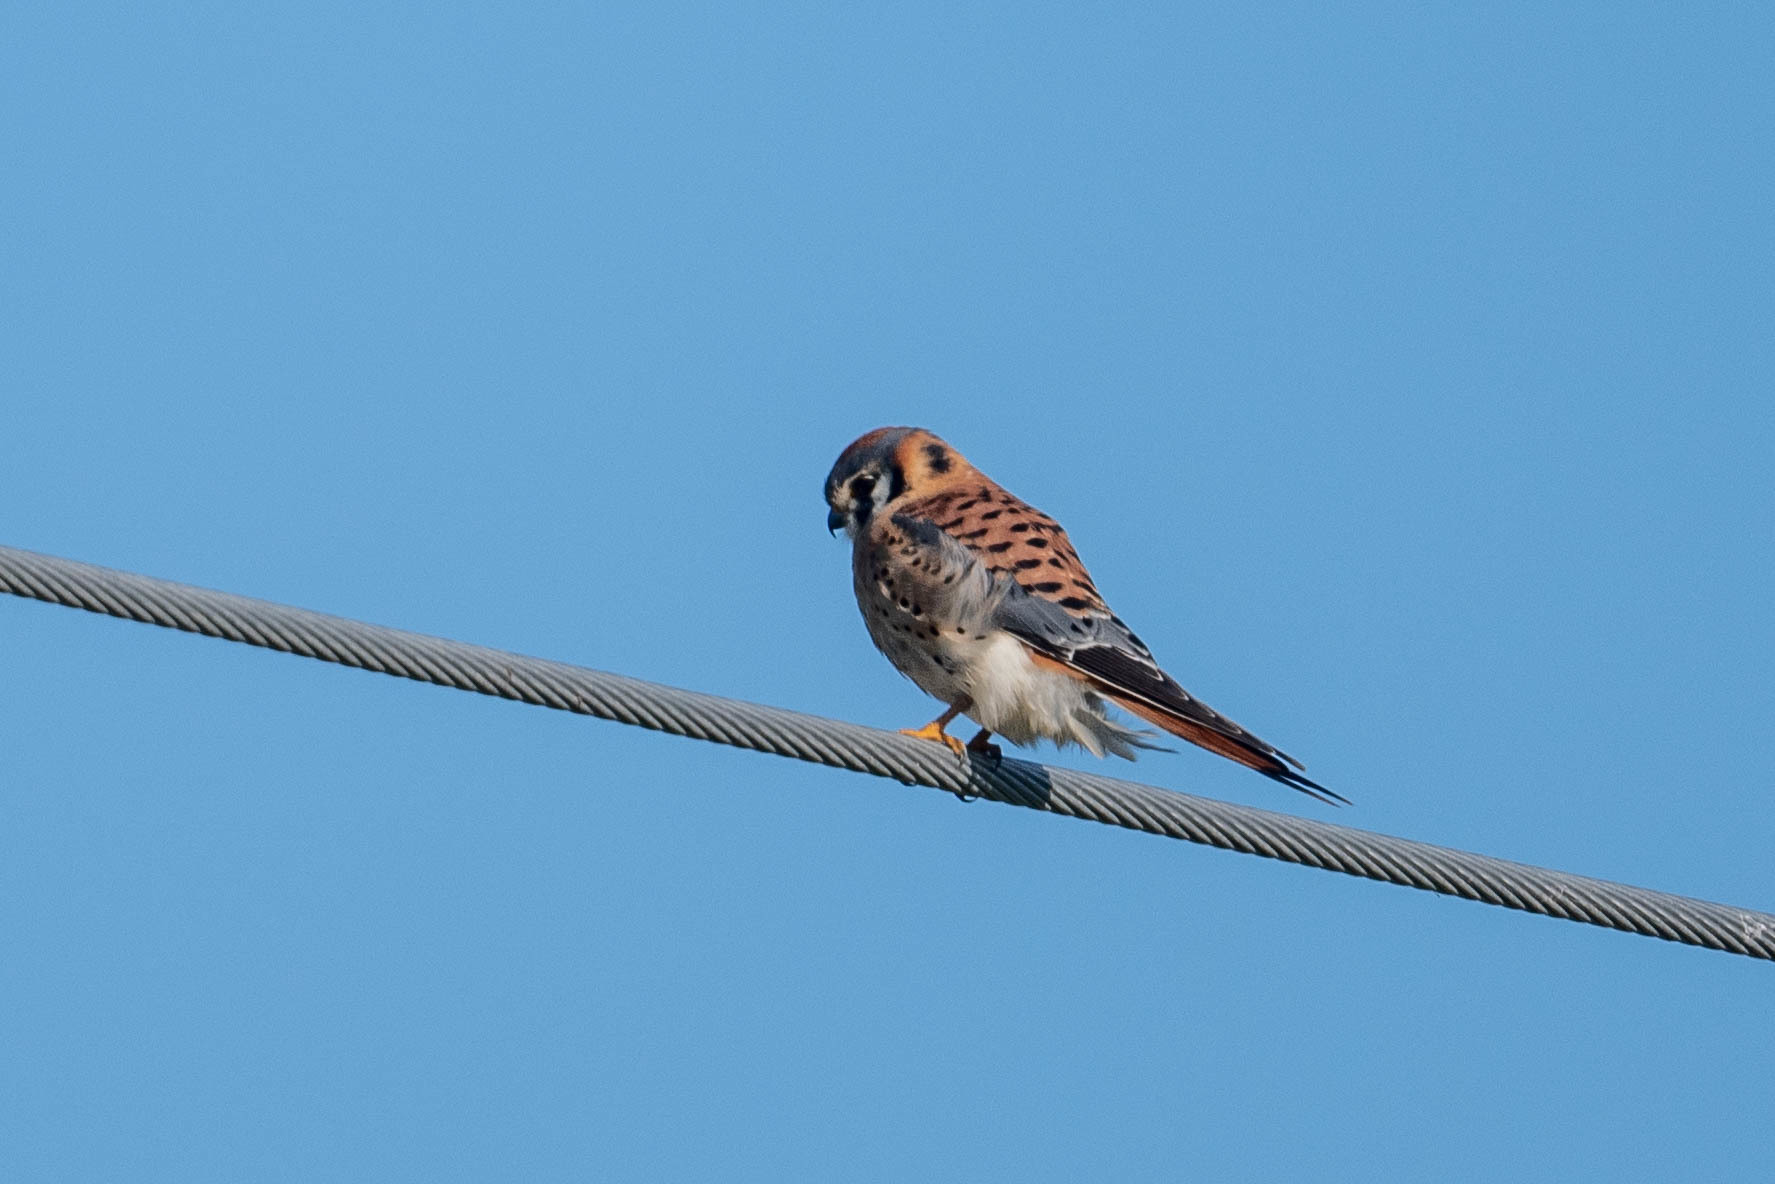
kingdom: Animalia
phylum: Chordata
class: Aves
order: Falconiformes
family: Falconidae
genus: Falco
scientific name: Falco sparverius
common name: American kestrel
